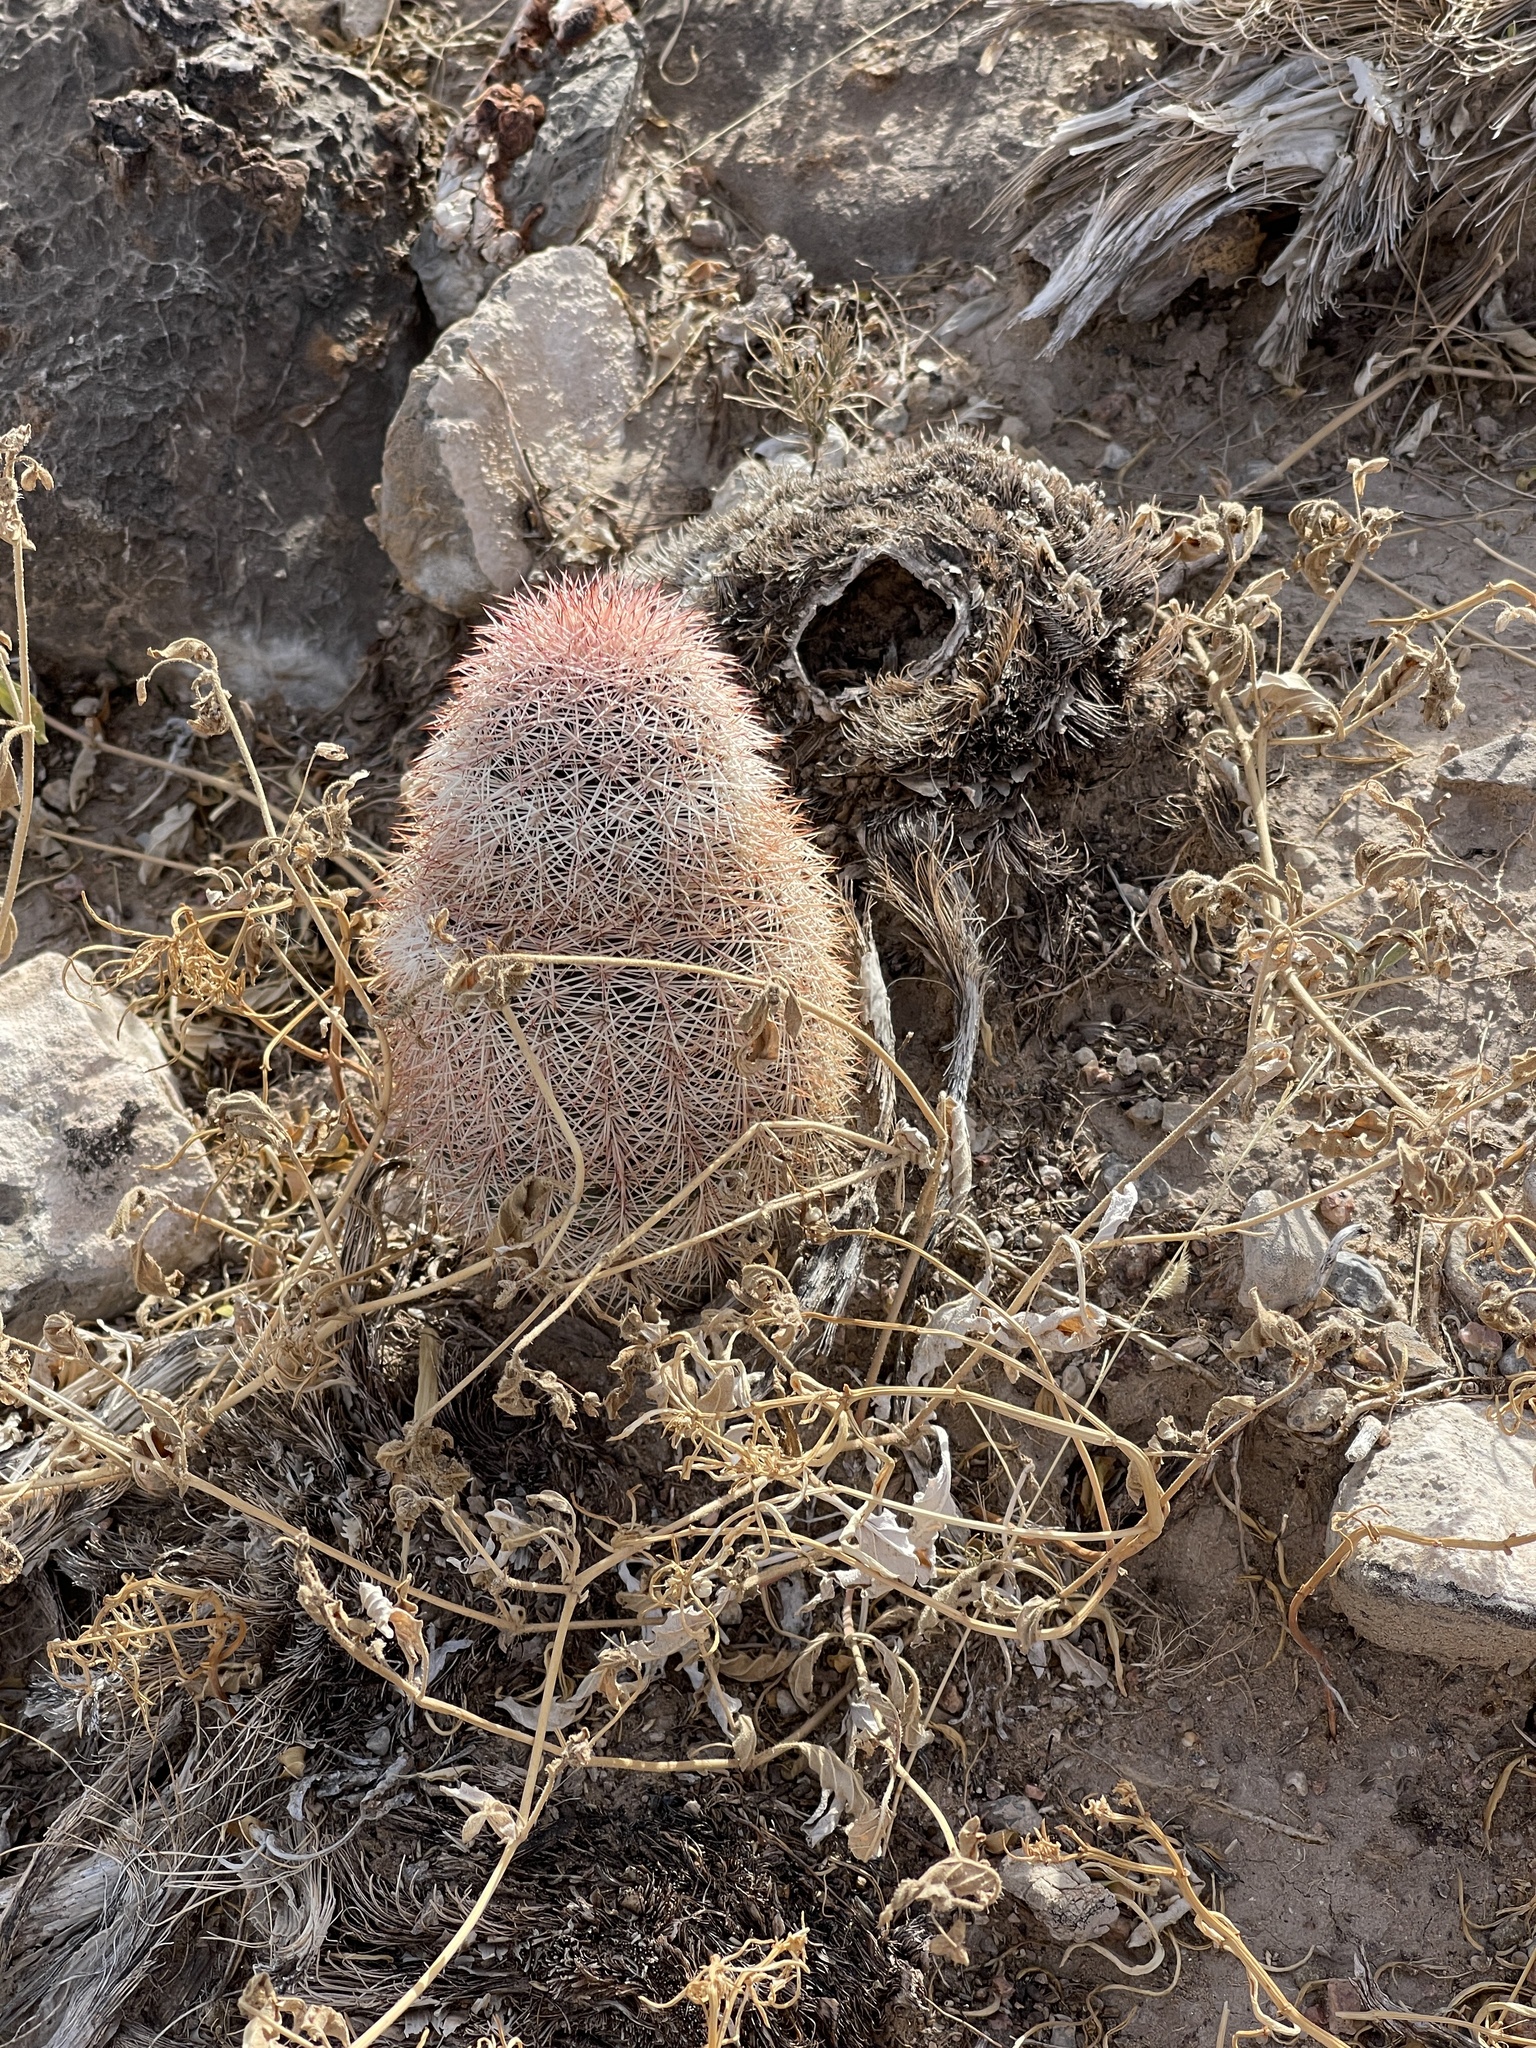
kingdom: Plantae
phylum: Tracheophyta
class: Magnoliopsida
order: Caryophyllales
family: Cactaceae
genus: Echinocereus
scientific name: Echinocereus dasyacanthus
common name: Spiny hedgehog cactus
